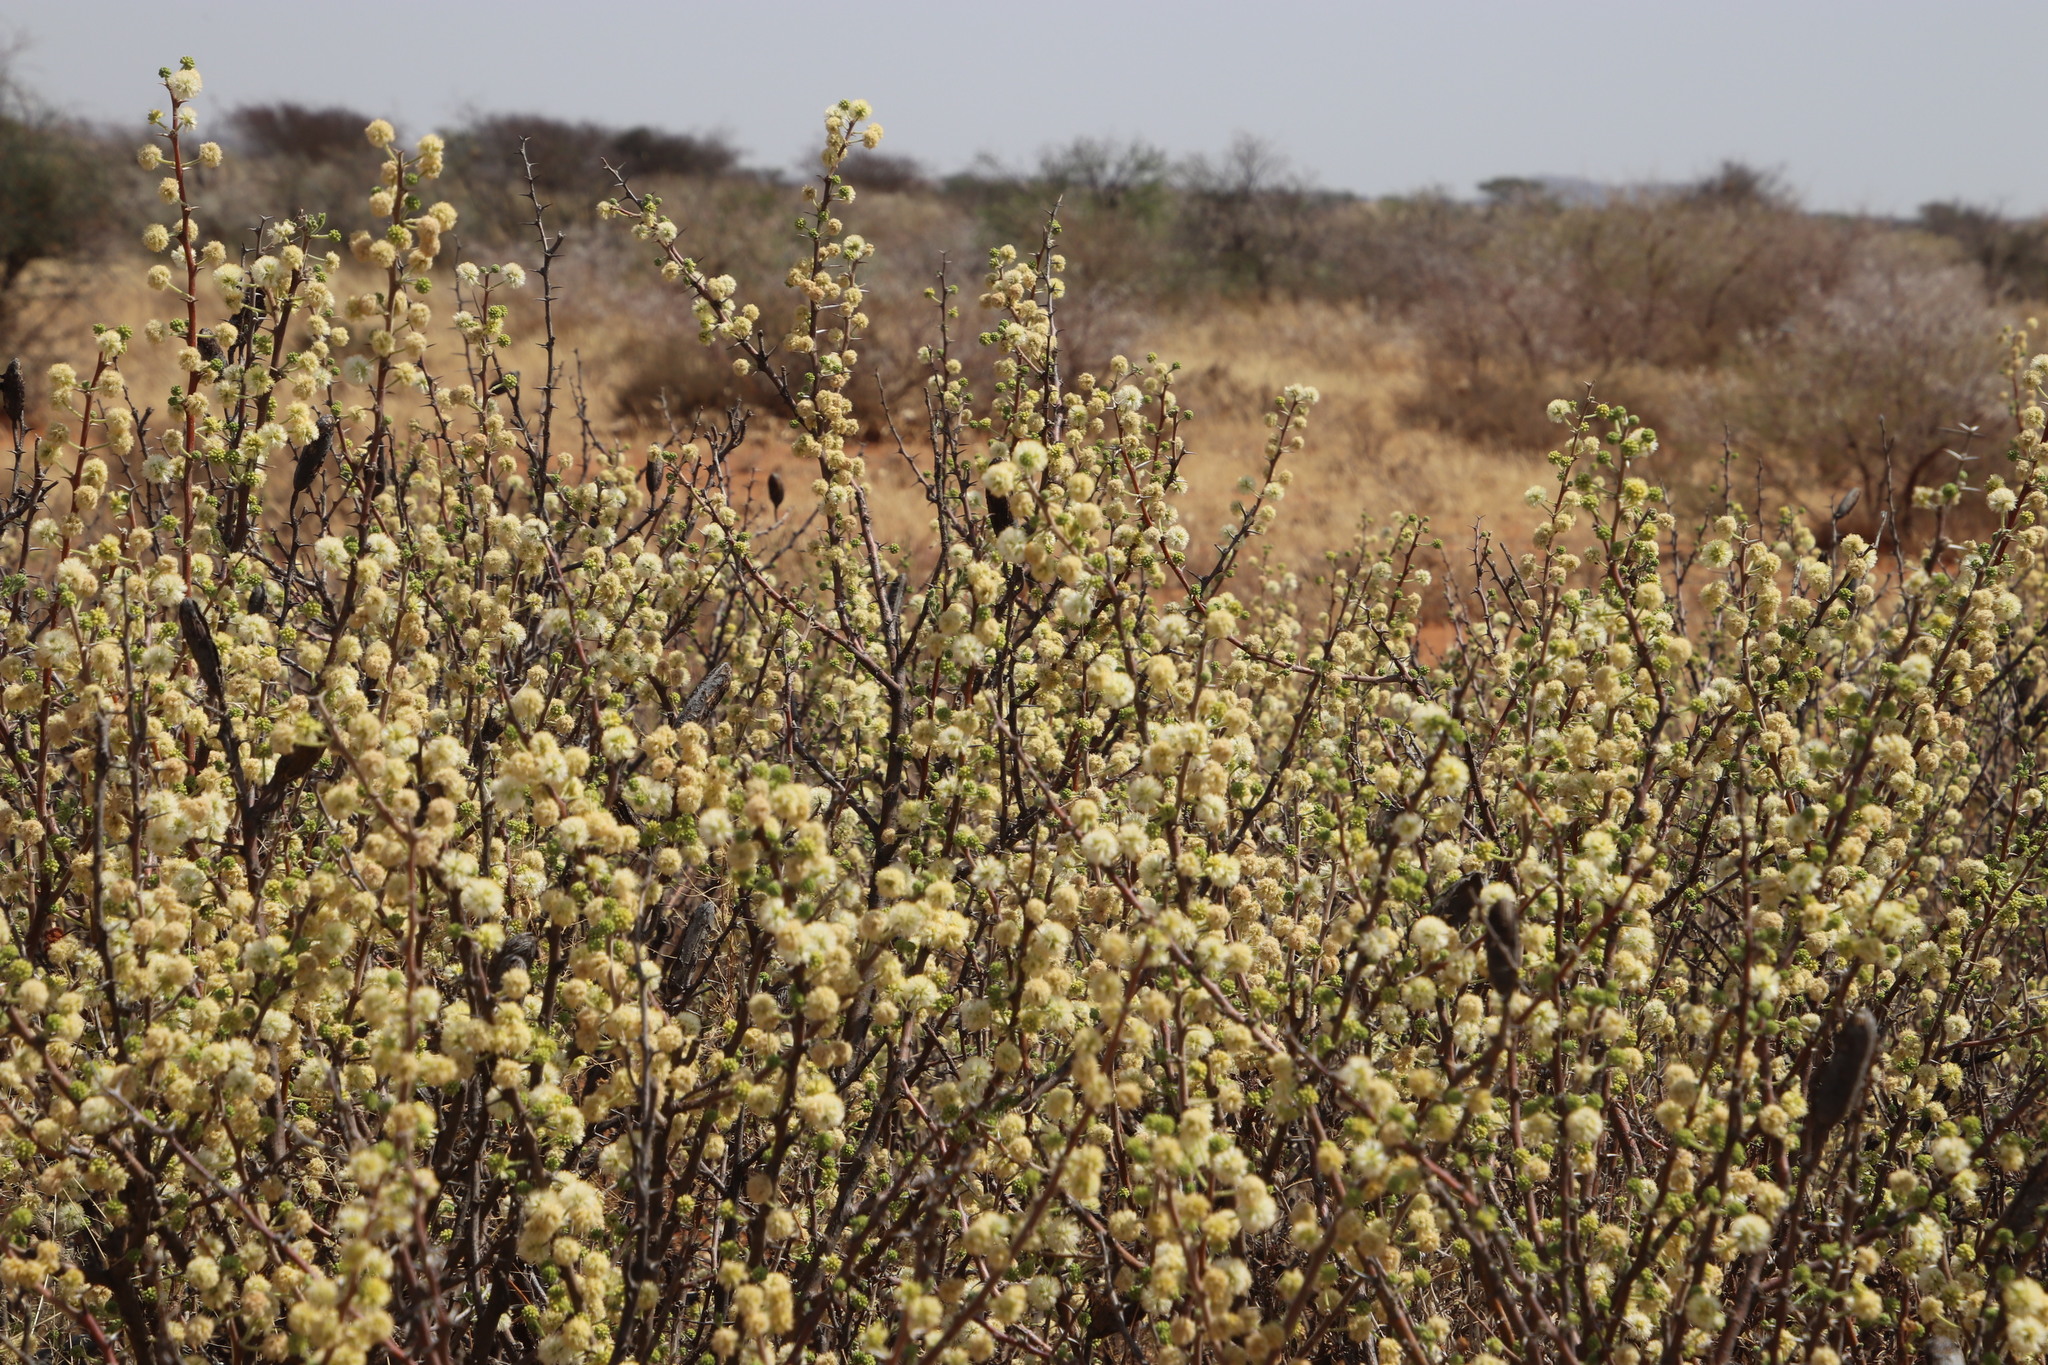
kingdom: Plantae
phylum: Tracheophyta
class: Magnoliopsida
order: Fabales
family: Fabaceae
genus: Vachellia
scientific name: Vachellia hebeclada
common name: Candle thorn
